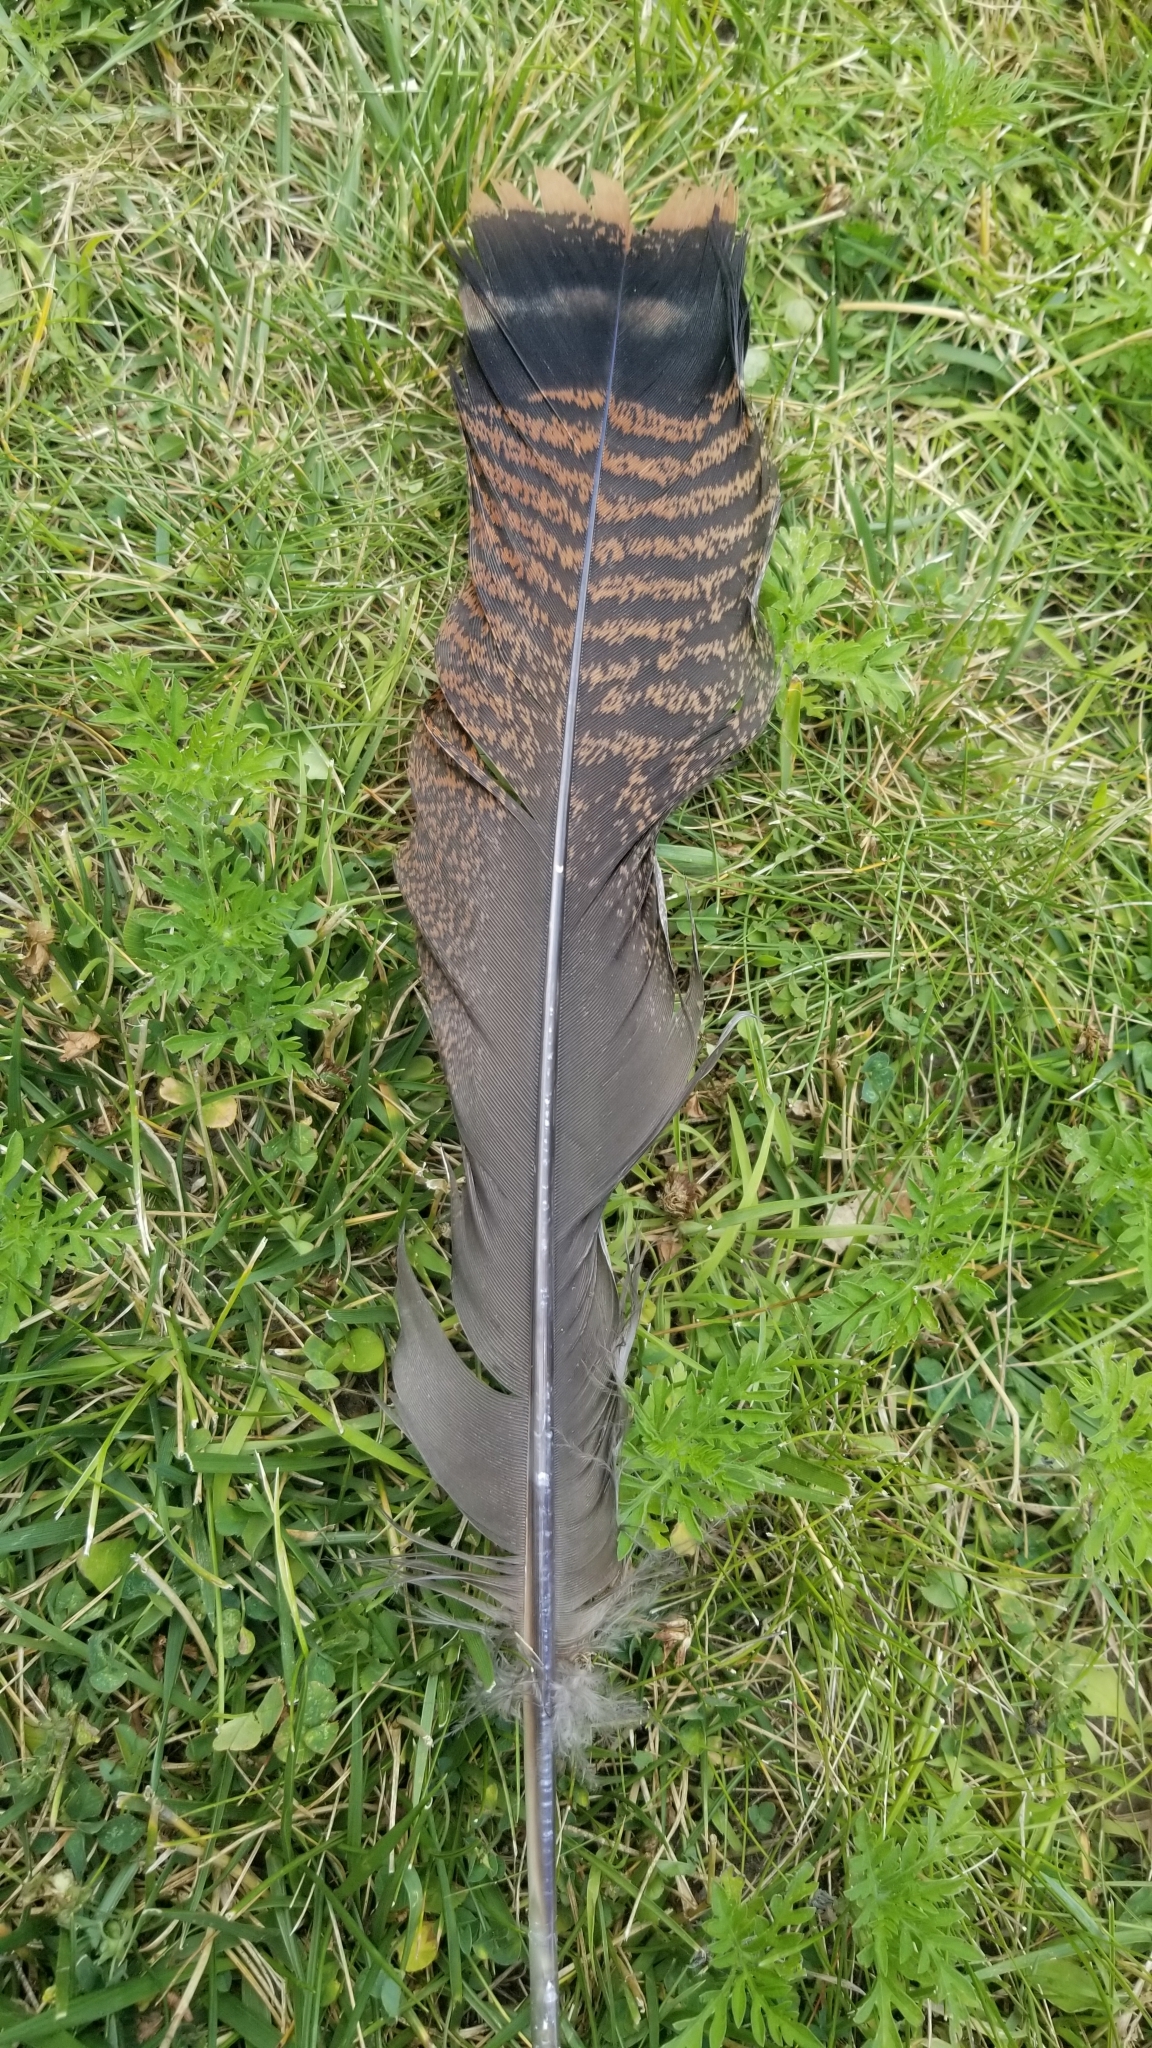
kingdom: Animalia
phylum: Chordata
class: Aves
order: Galliformes
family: Phasianidae
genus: Meleagris
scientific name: Meleagris gallopavo
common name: Wild turkey
